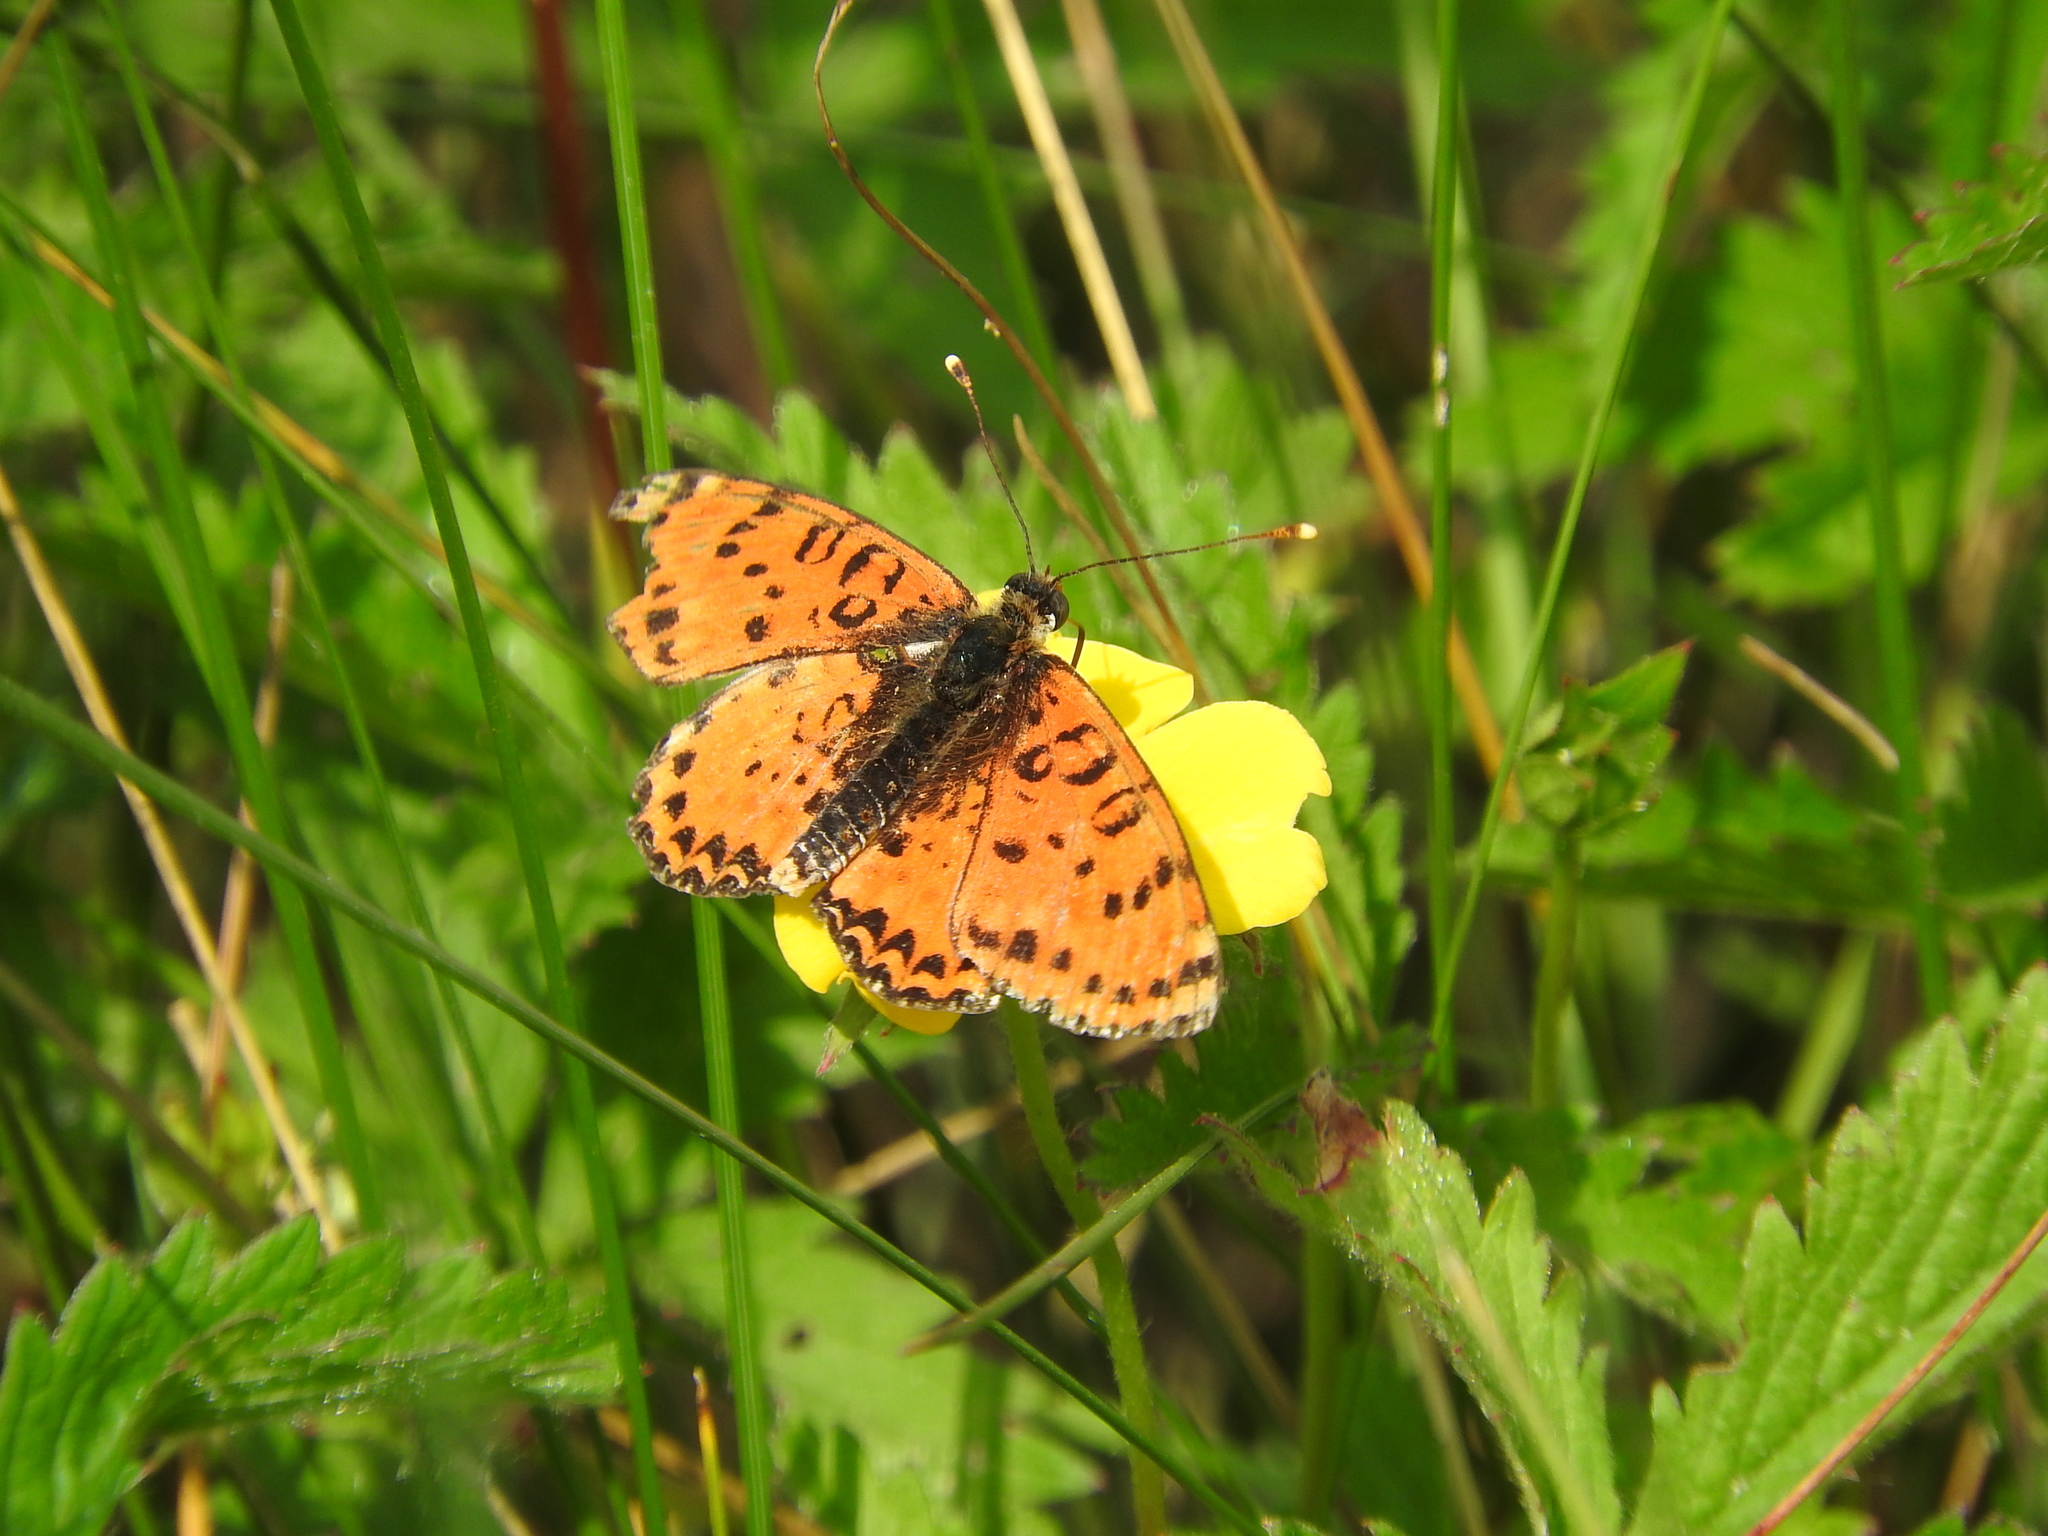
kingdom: Animalia
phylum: Arthropoda
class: Insecta
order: Lepidoptera
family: Nymphalidae
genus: Melitaea
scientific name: Melitaea didyma
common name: Spotted fritillary
